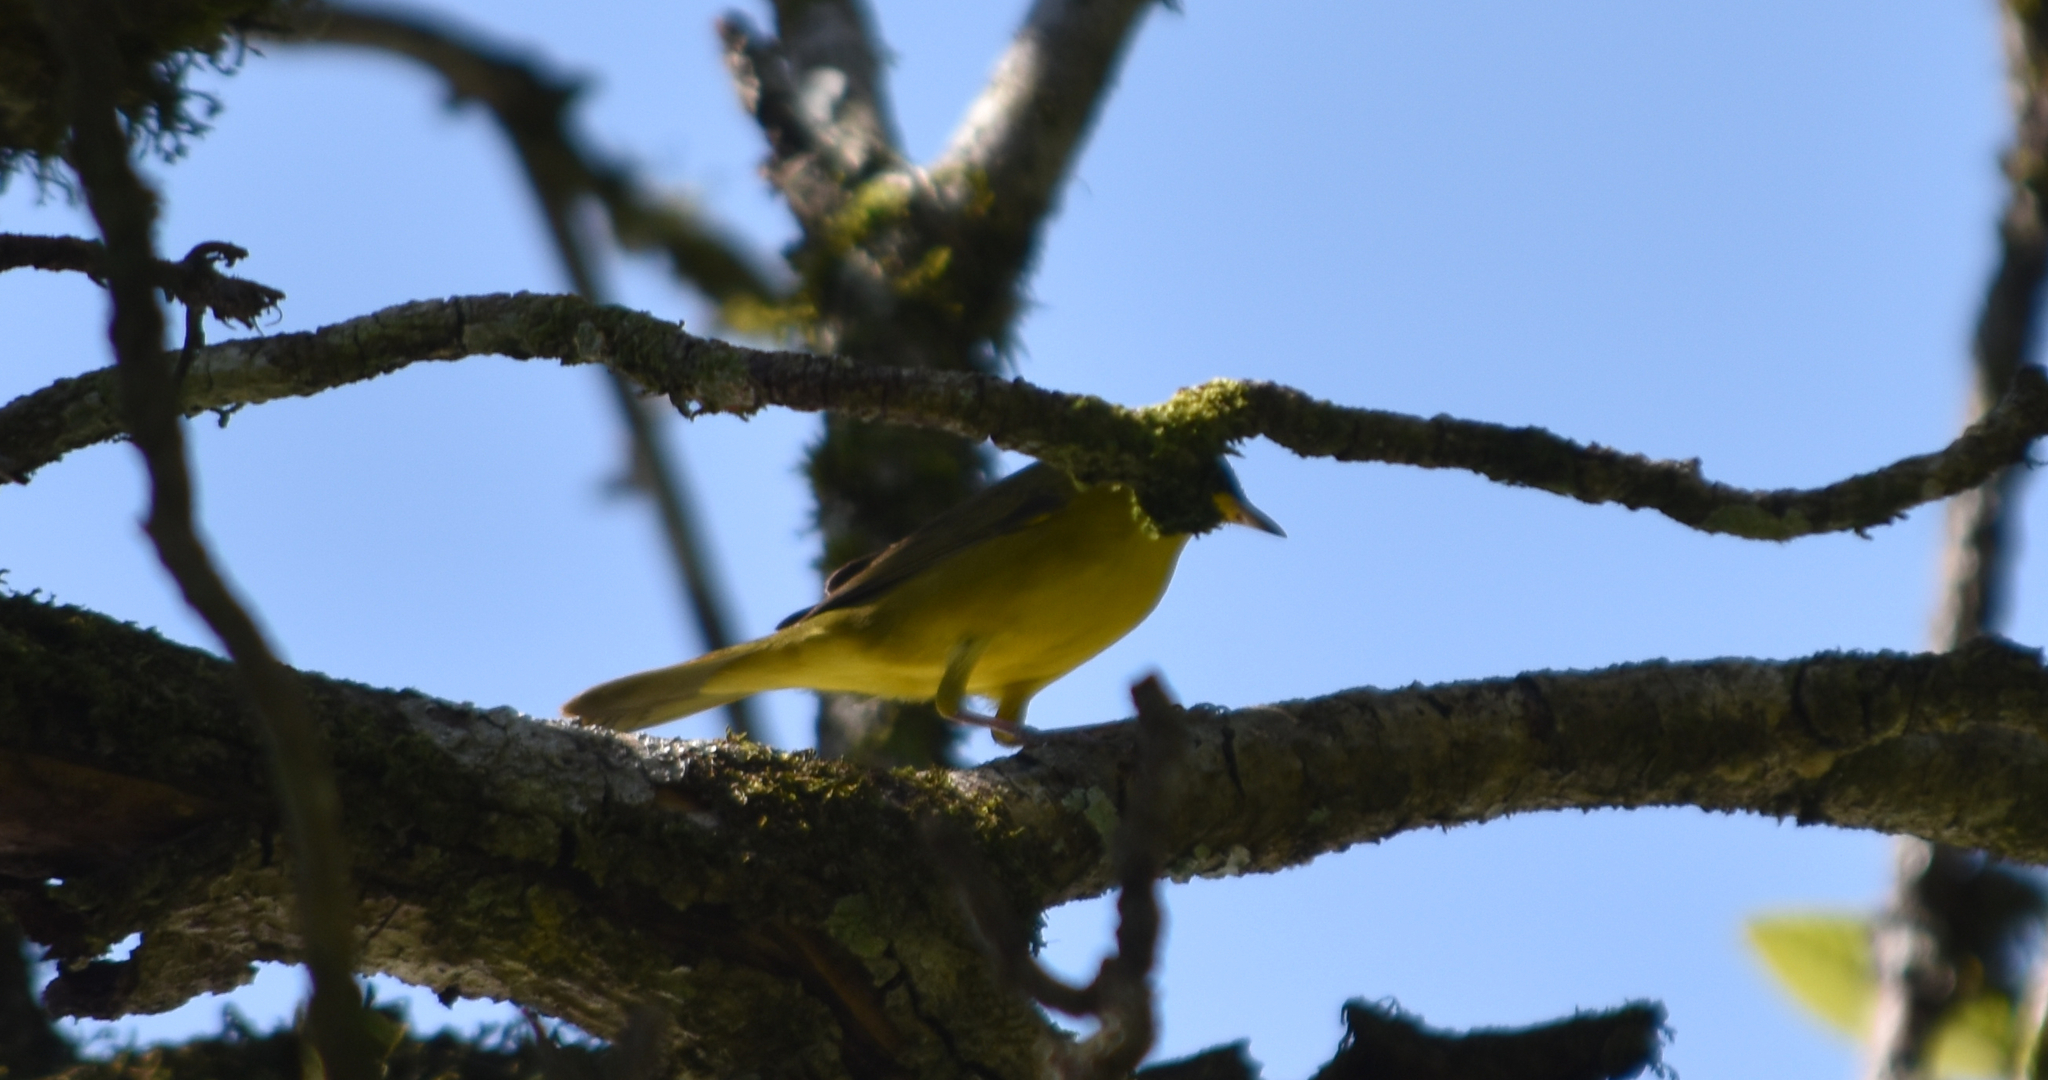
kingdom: Animalia
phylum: Chordata
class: Aves
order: Passeriformes
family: Parulidae
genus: Geothlypis
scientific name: Geothlypis velata
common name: Southern yellowthroat
